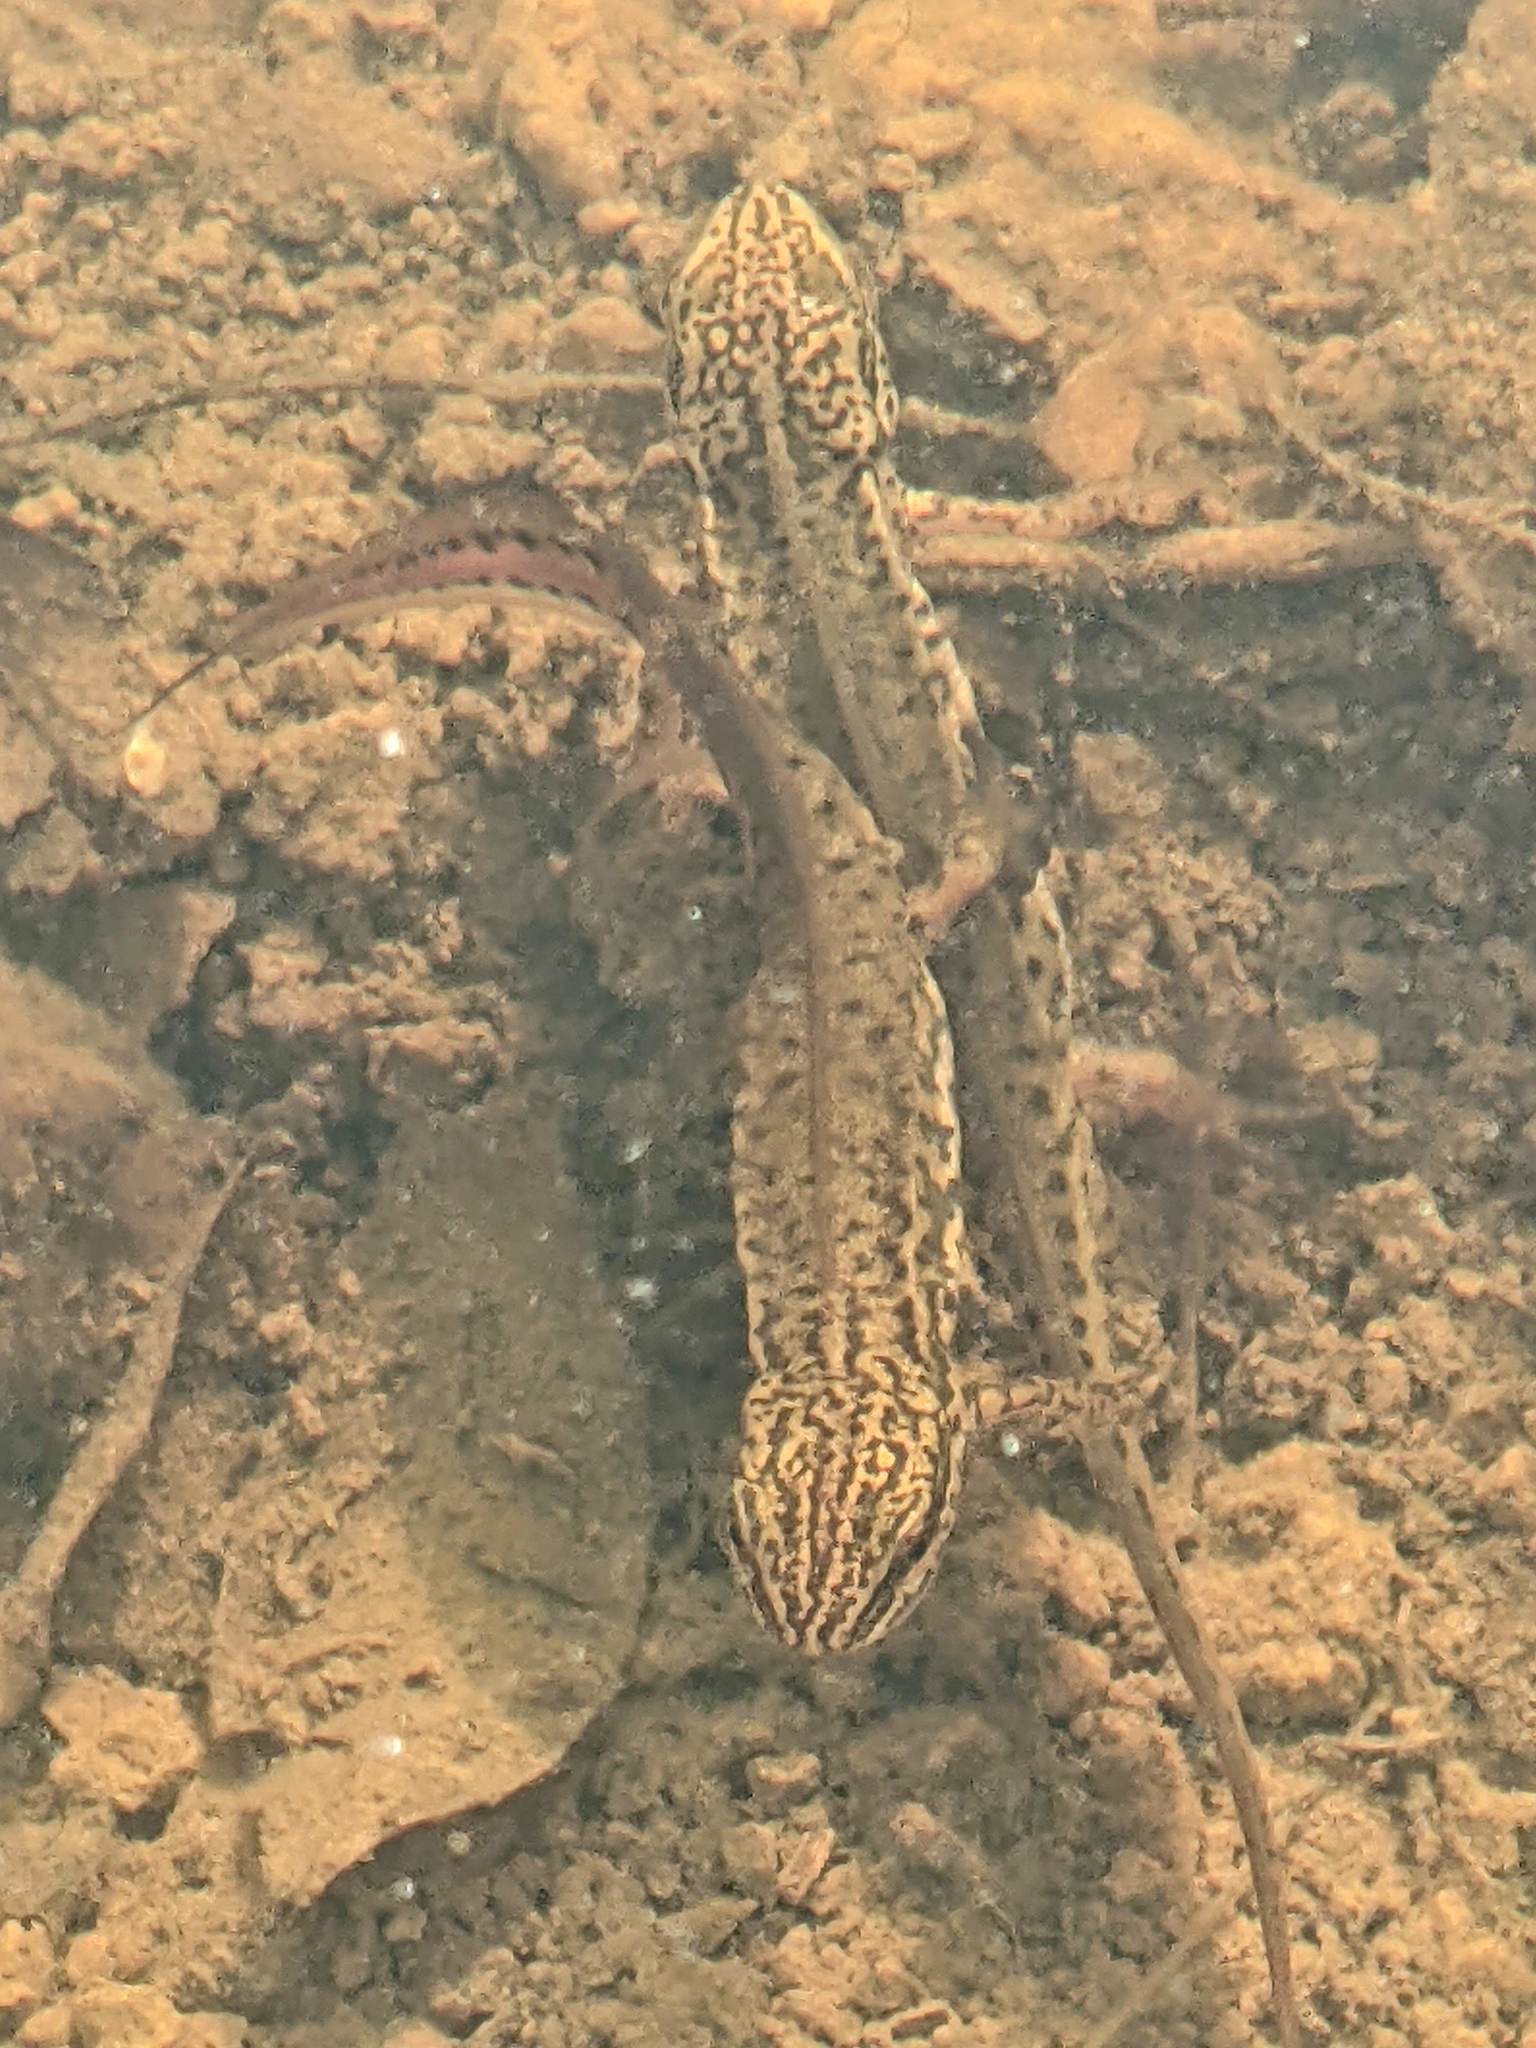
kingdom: Animalia
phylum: Chordata
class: Amphibia
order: Caudata
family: Salamandridae
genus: Lissotriton
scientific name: Lissotriton helveticus
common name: Palmate newt
